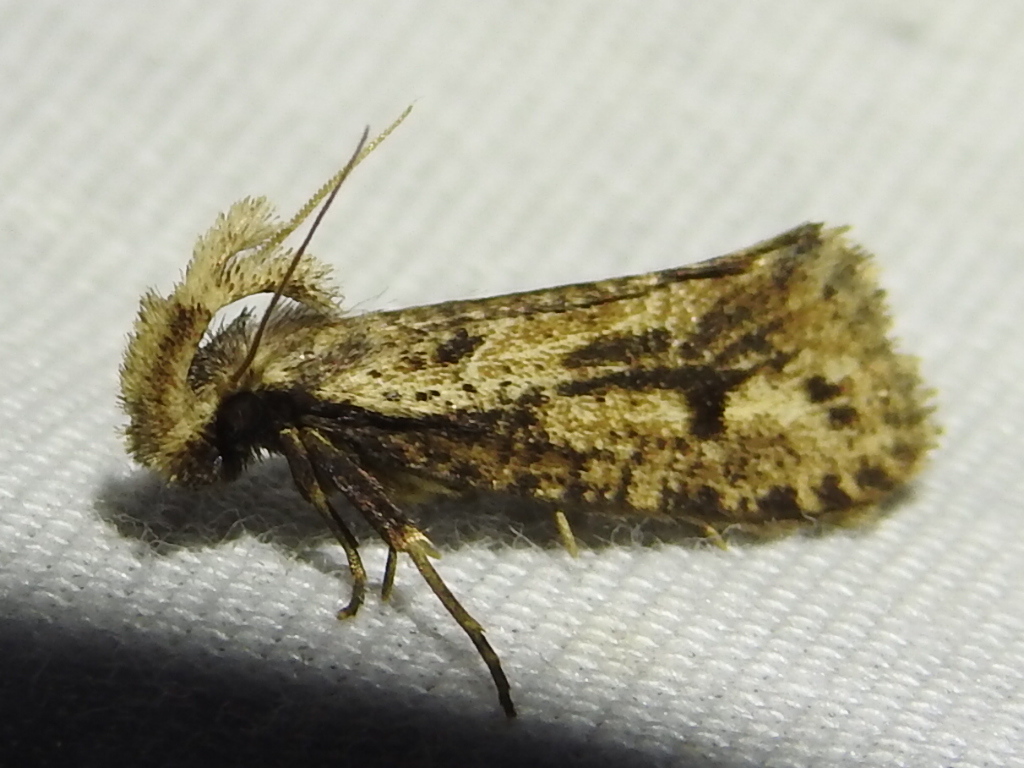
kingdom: Animalia
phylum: Arthropoda
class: Insecta
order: Lepidoptera
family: Tineidae
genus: Acrolophus
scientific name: Acrolophus mortipennella
